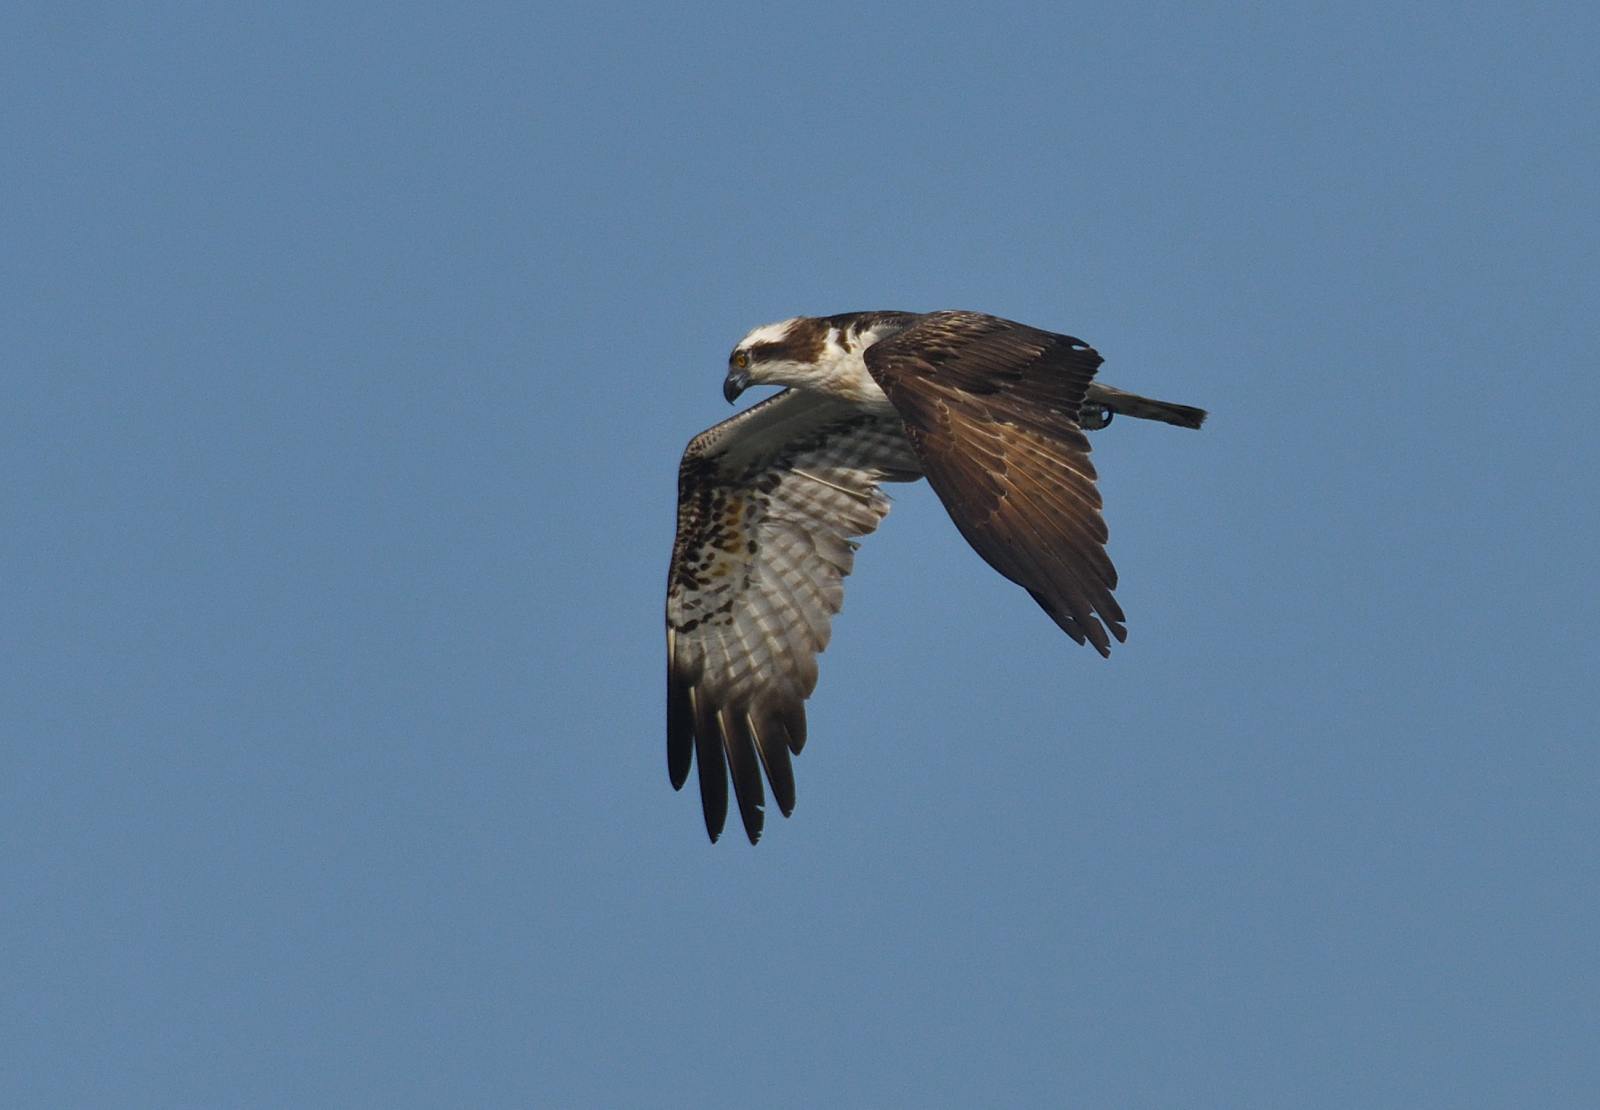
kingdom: Animalia
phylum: Chordata
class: Aves
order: Accipitriformes
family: Pandionidae
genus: Pandion
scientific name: Pandion haliaetus
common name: Osprey
